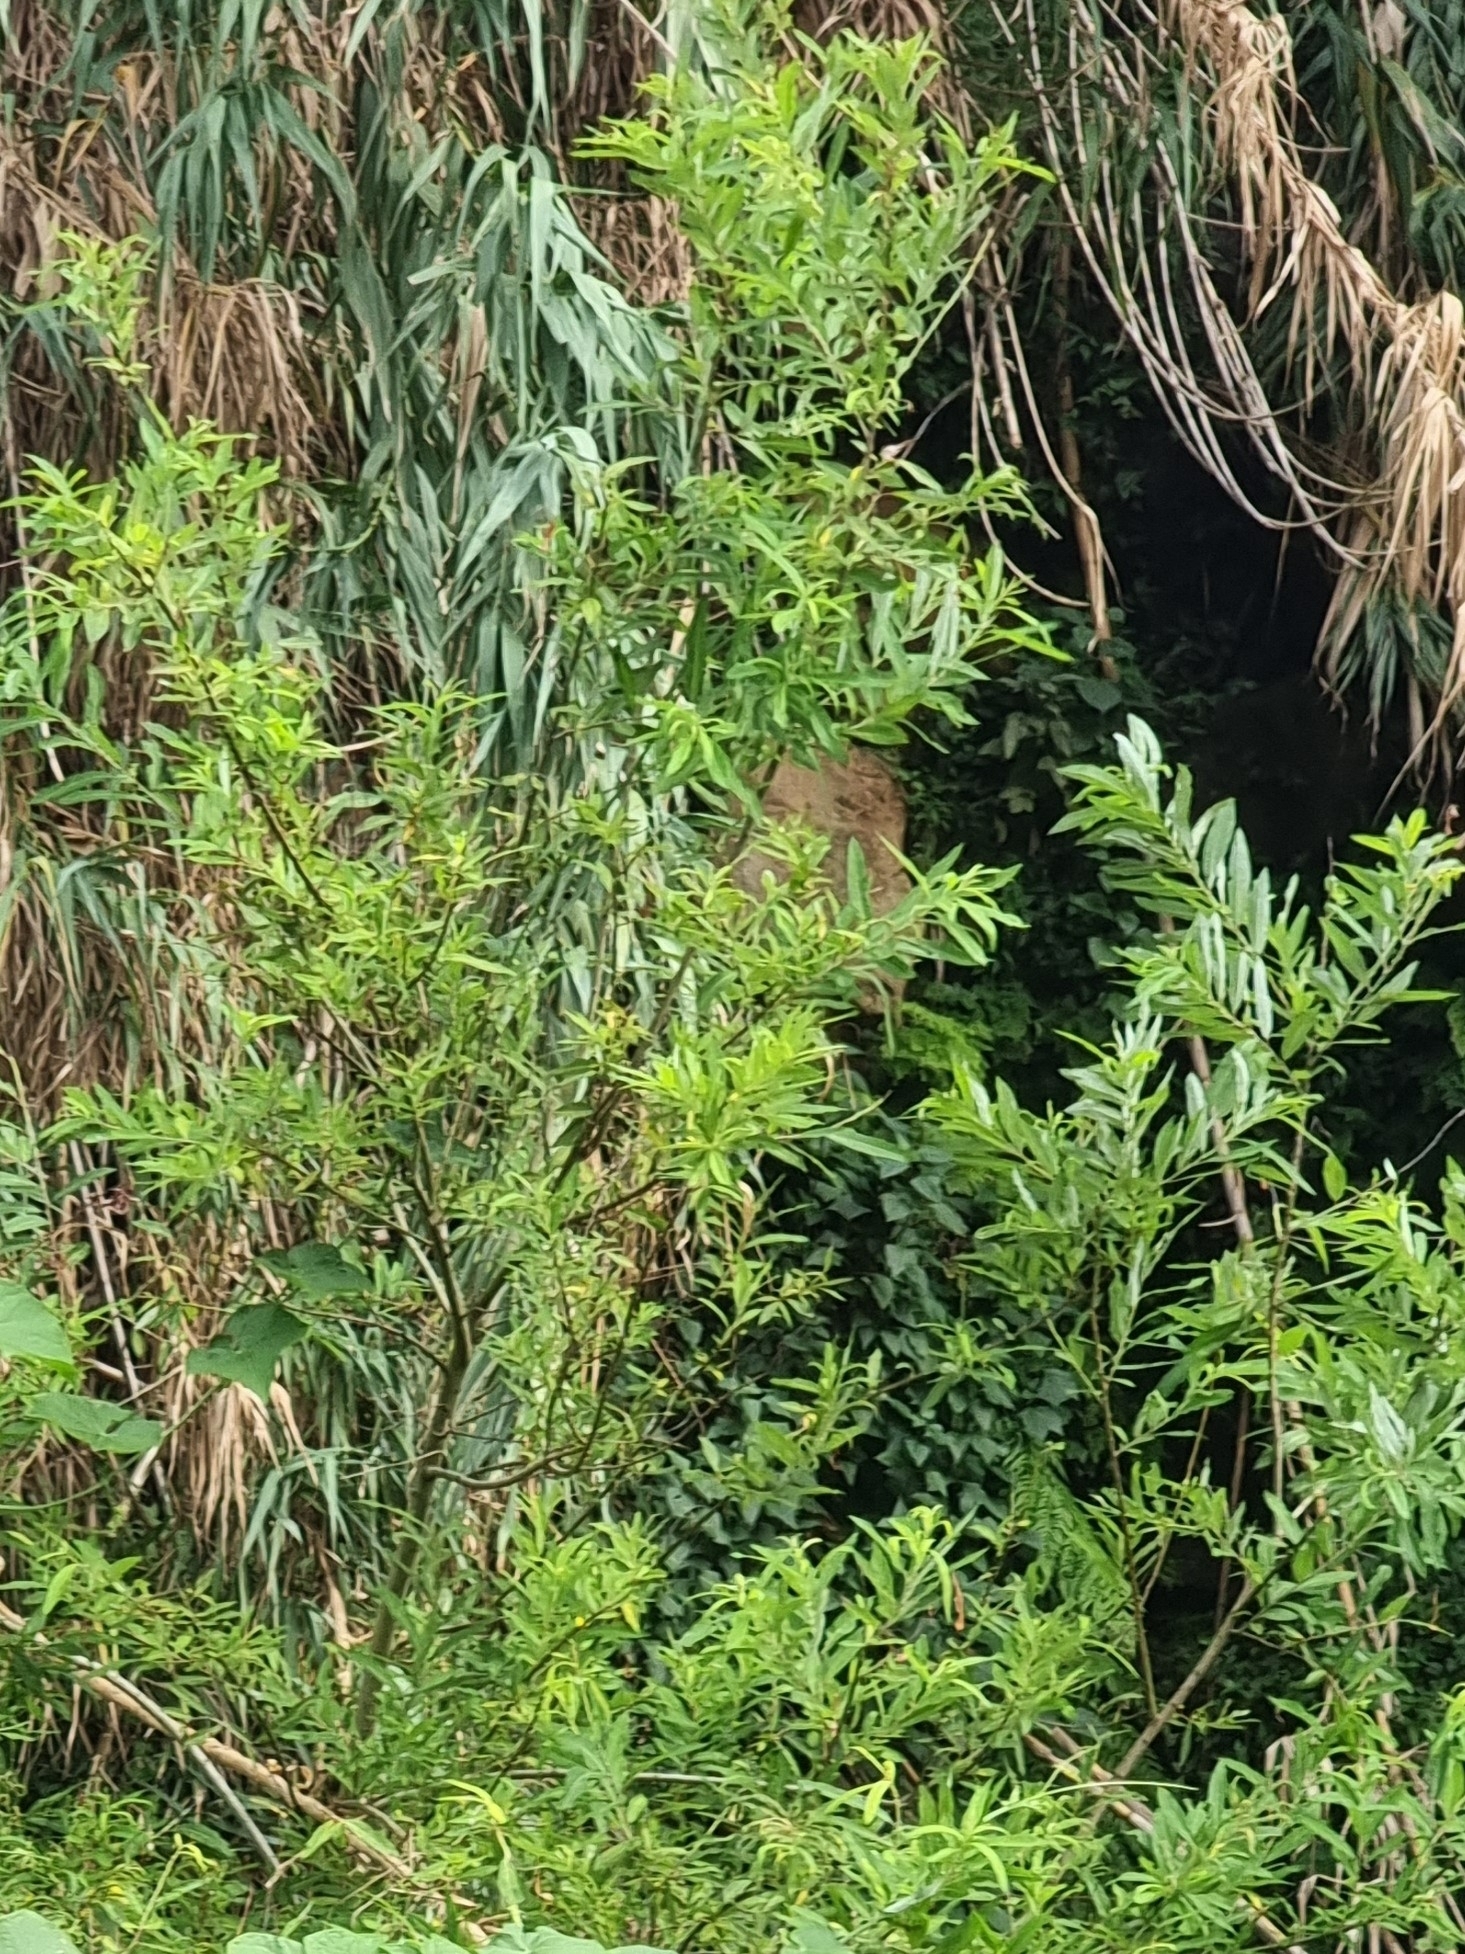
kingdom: Plantae
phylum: Tracheophyta
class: Magnoliopsida
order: Malpighiales
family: Salicaceae
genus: Salix
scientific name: Salix canariensis
